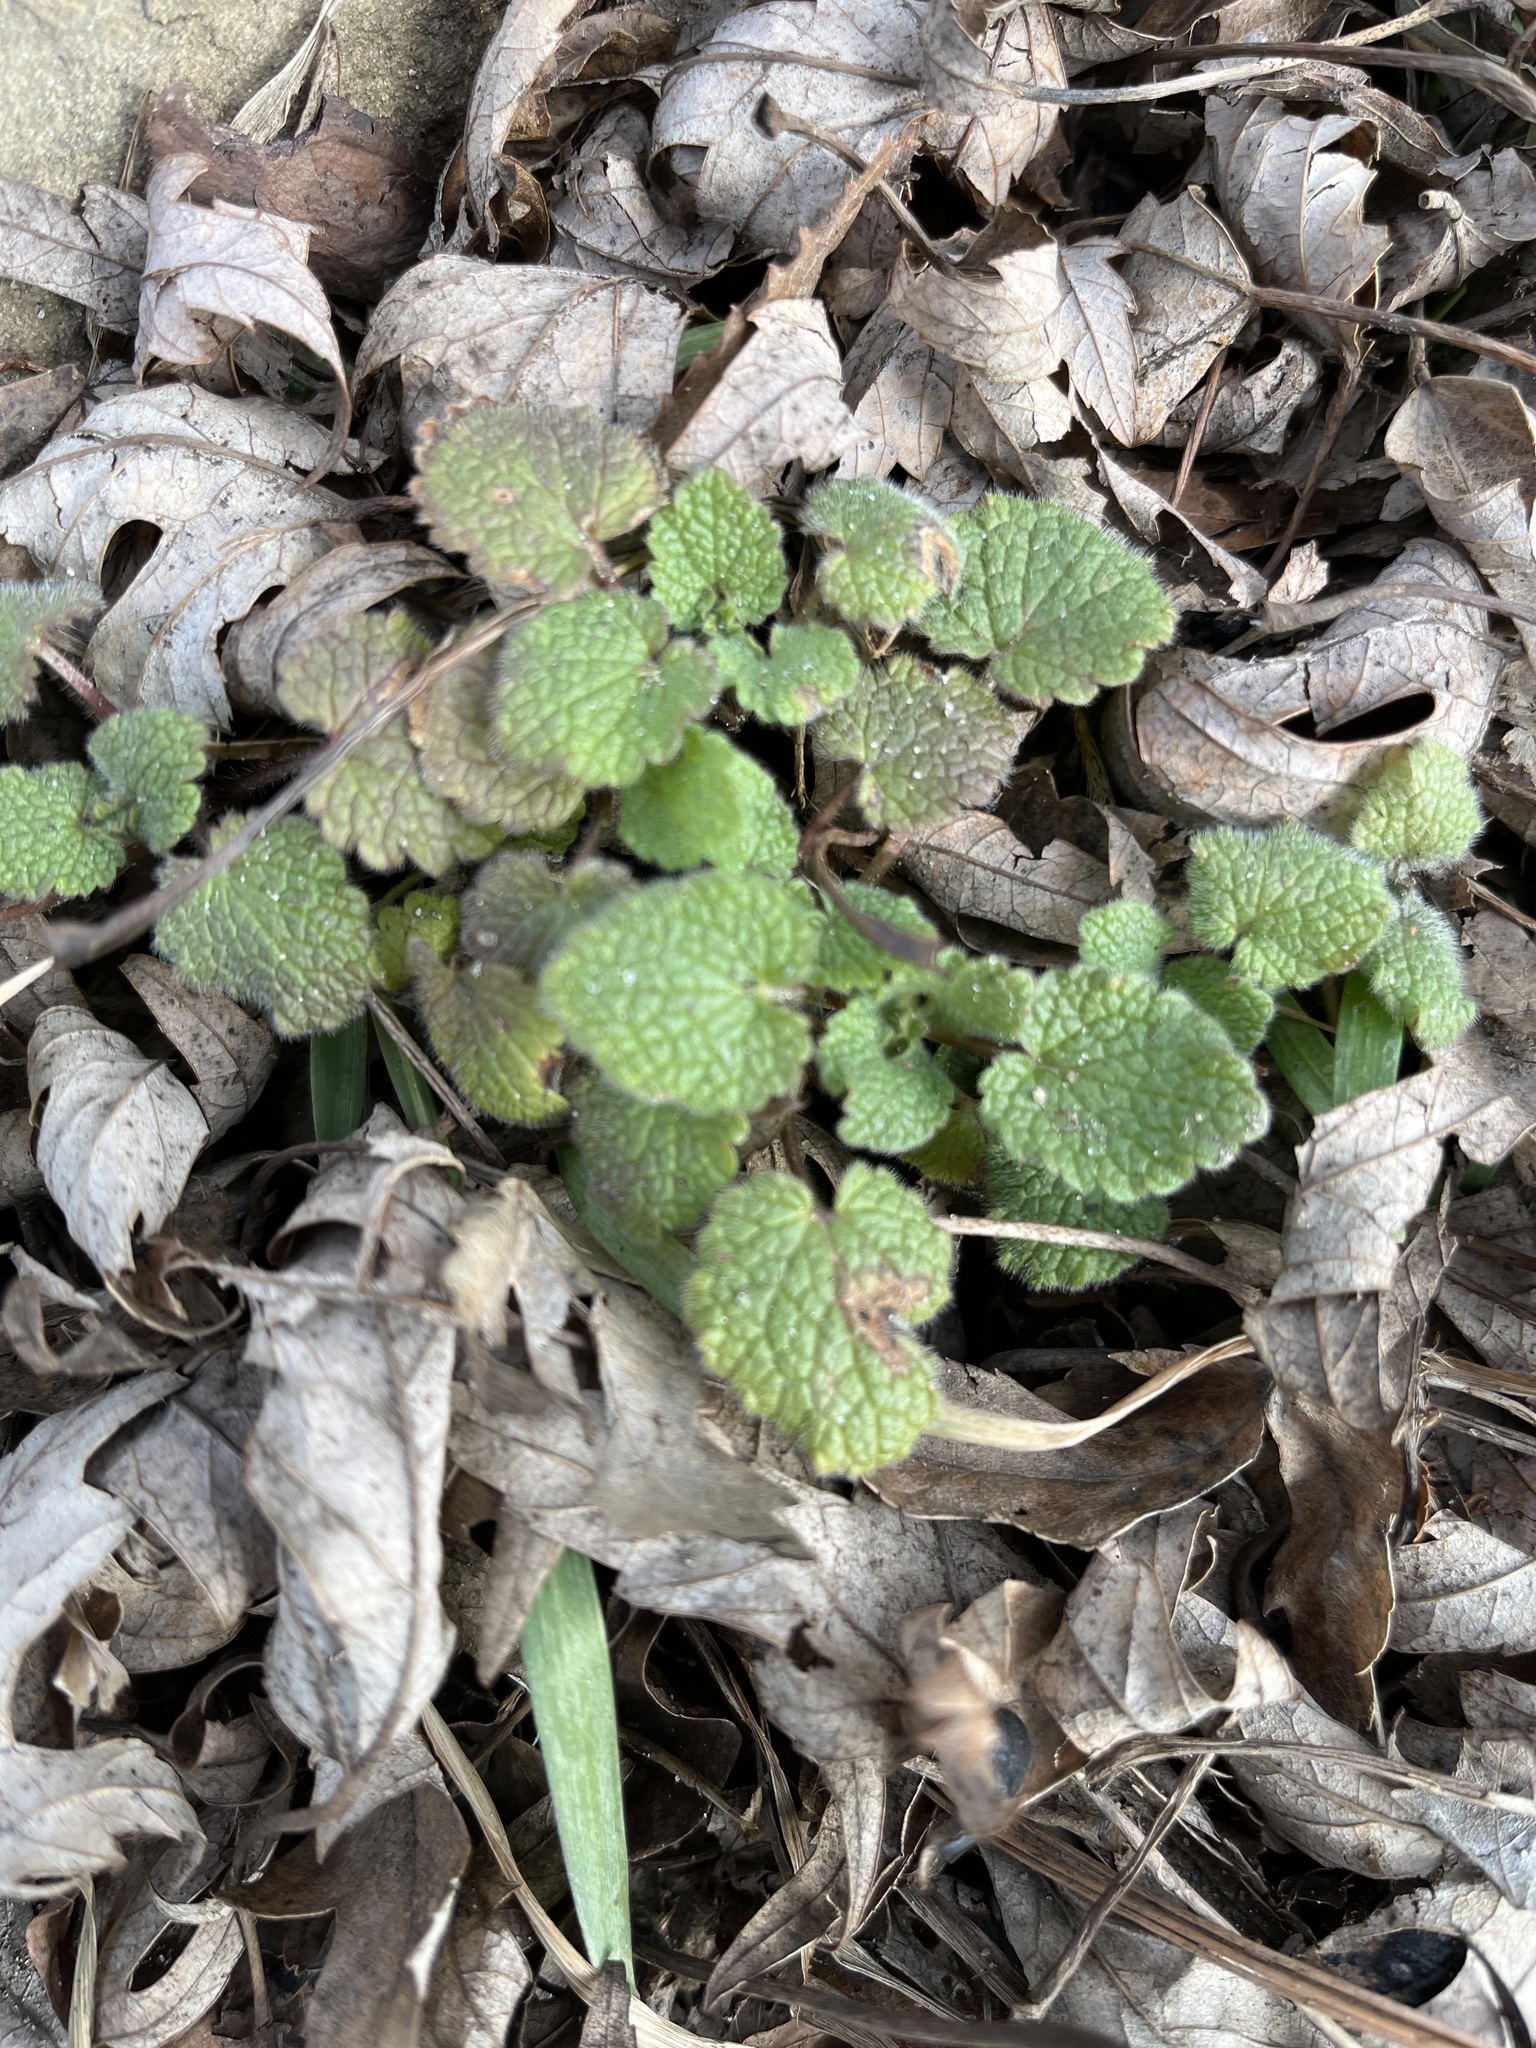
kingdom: Plantae
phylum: Tracheophyta
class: Magnoliopsida
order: Lamiales
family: Lamiaceae
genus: Lamium
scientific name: Lamium purpureum
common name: Red dead-nettle
